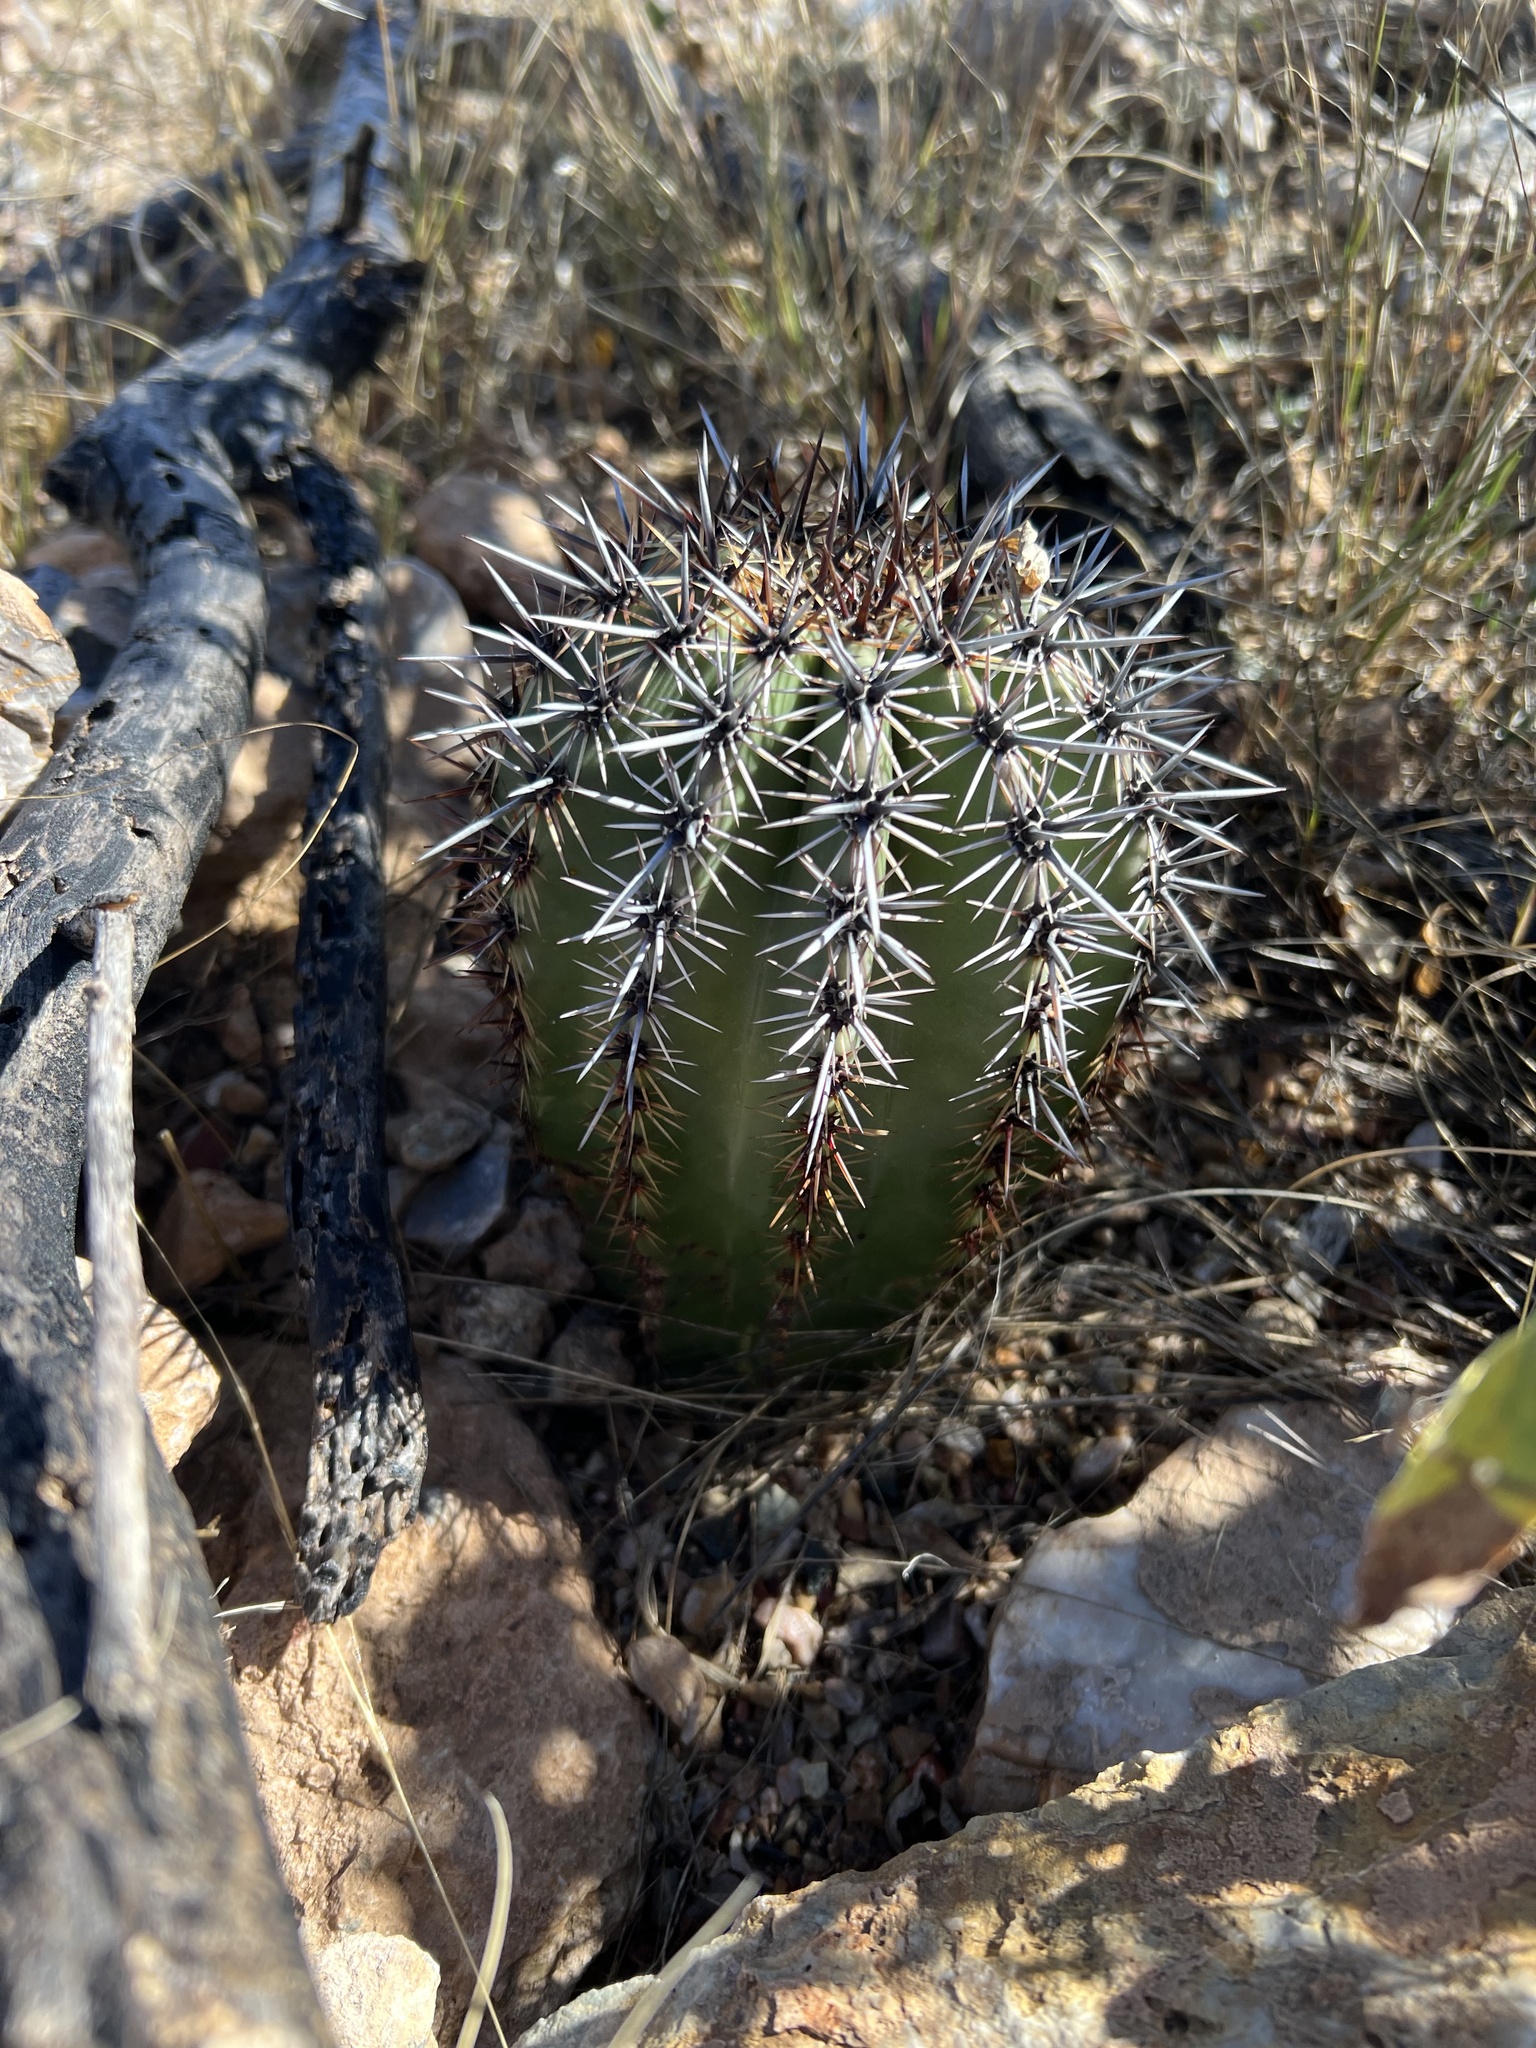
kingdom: Plantae
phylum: Tracheophyta
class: Magnoliopsida
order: Caryophyllales
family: Cactaceae
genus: Carnegiea
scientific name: Carnegiea gigantea
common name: Saguaro
